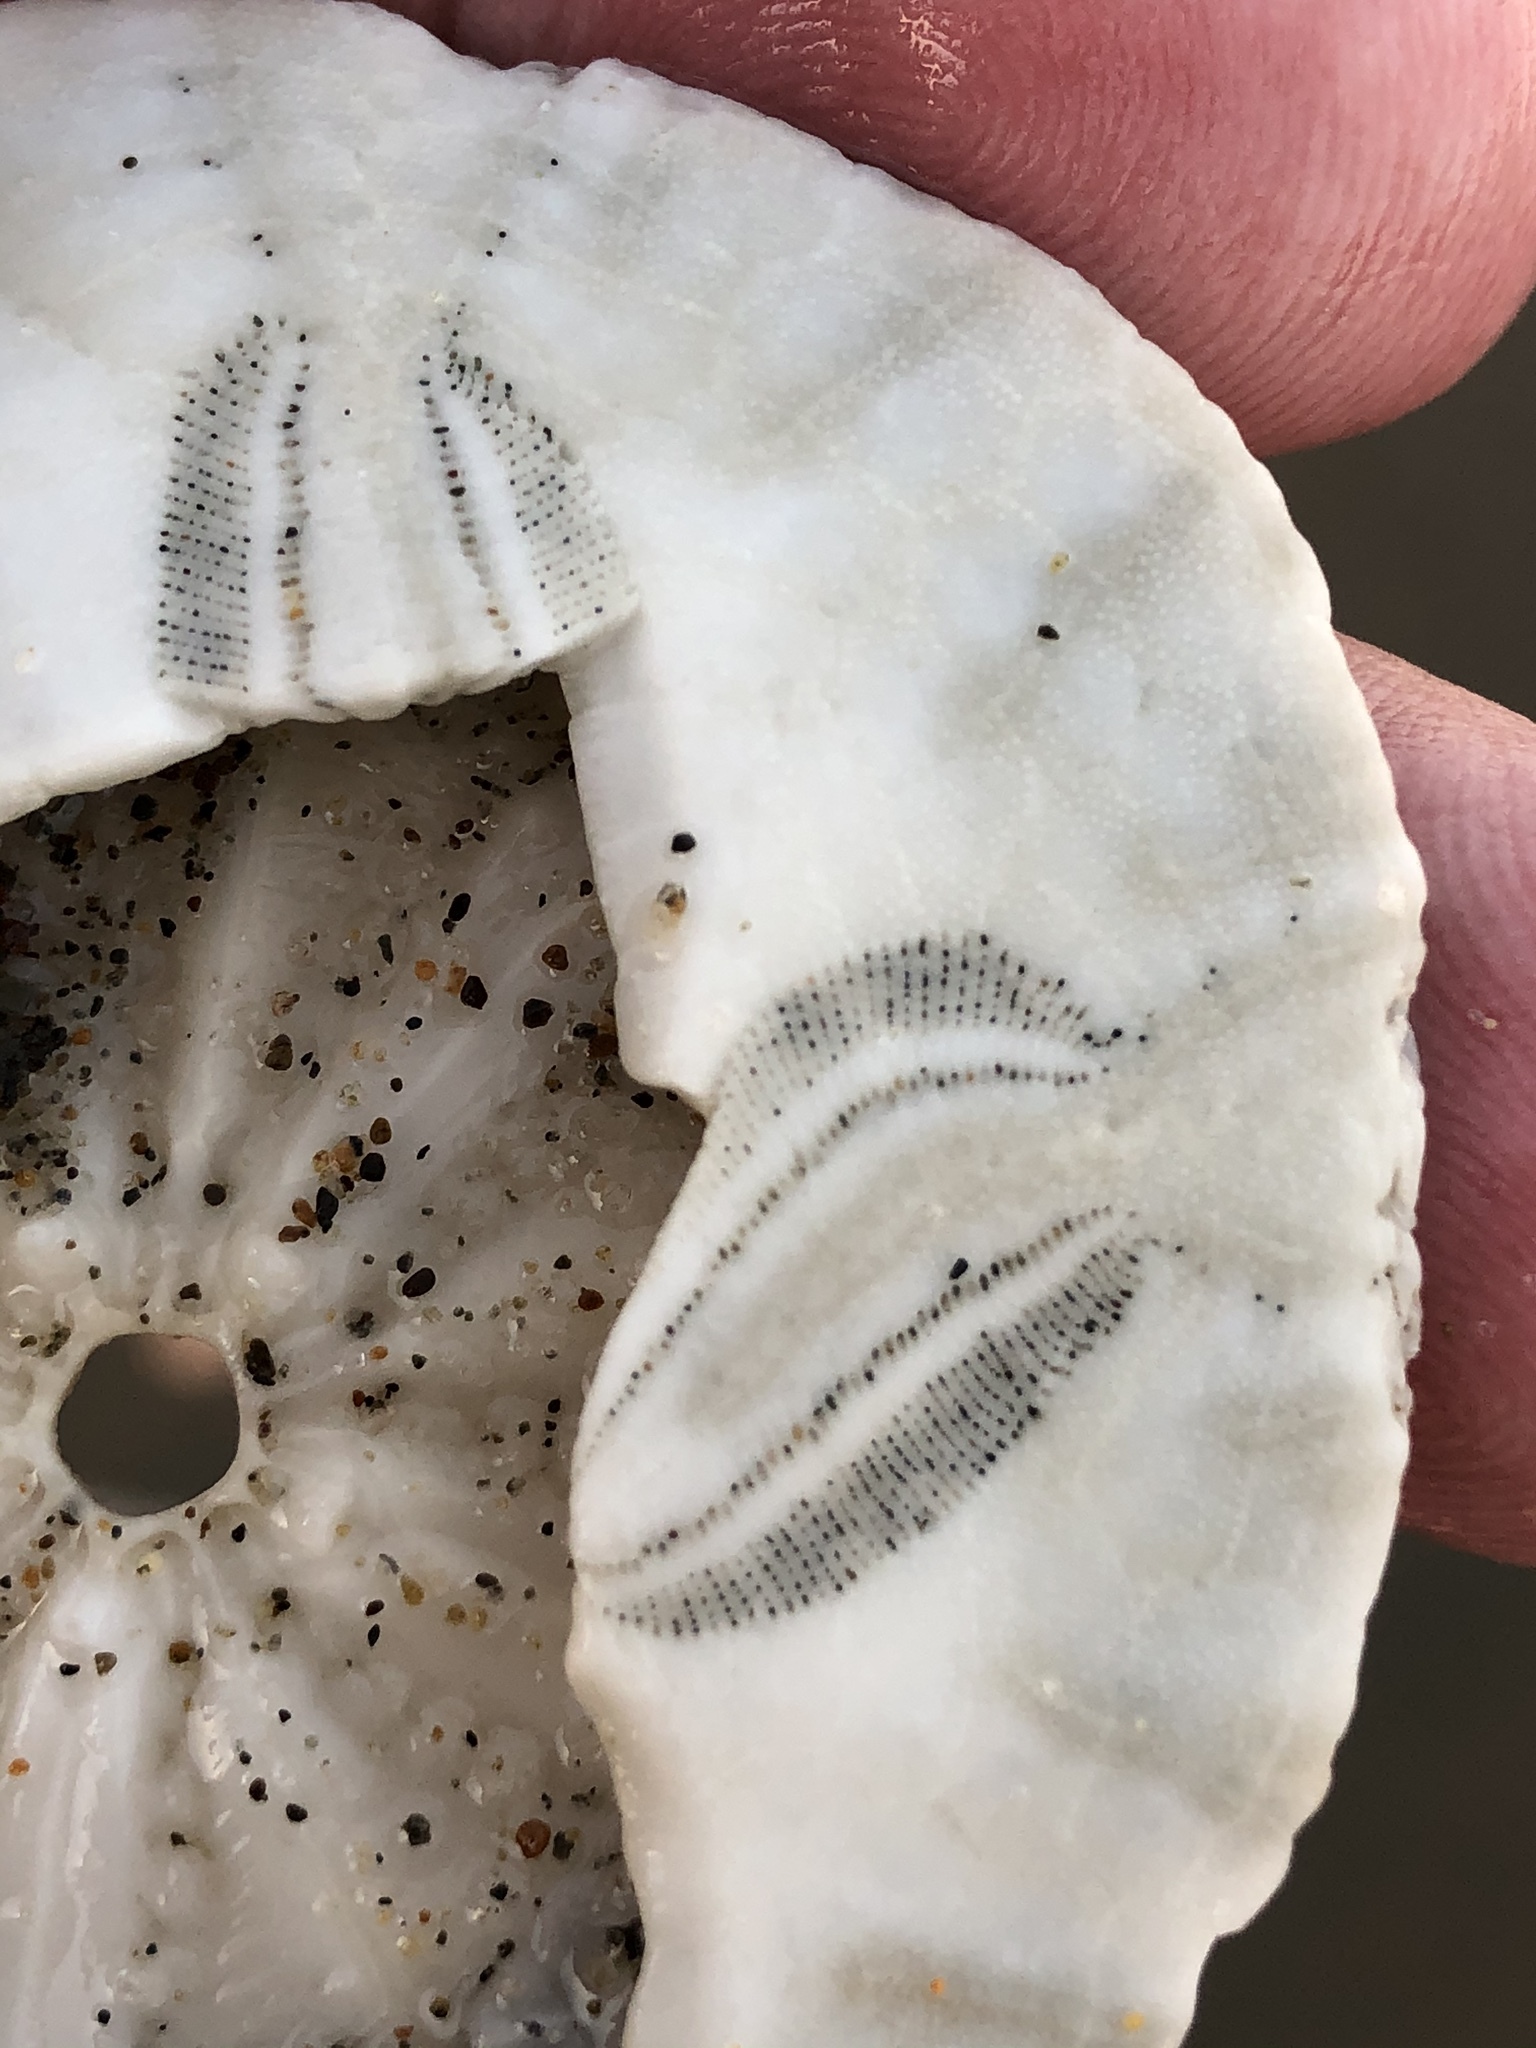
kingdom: Animalia
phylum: Echinodermata
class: Echinoidea
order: Echinolampadacea
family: Dendrasteridae
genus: Dendraster
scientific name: Dendraster excentricus
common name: Eccentric sand dollar sea urchin
